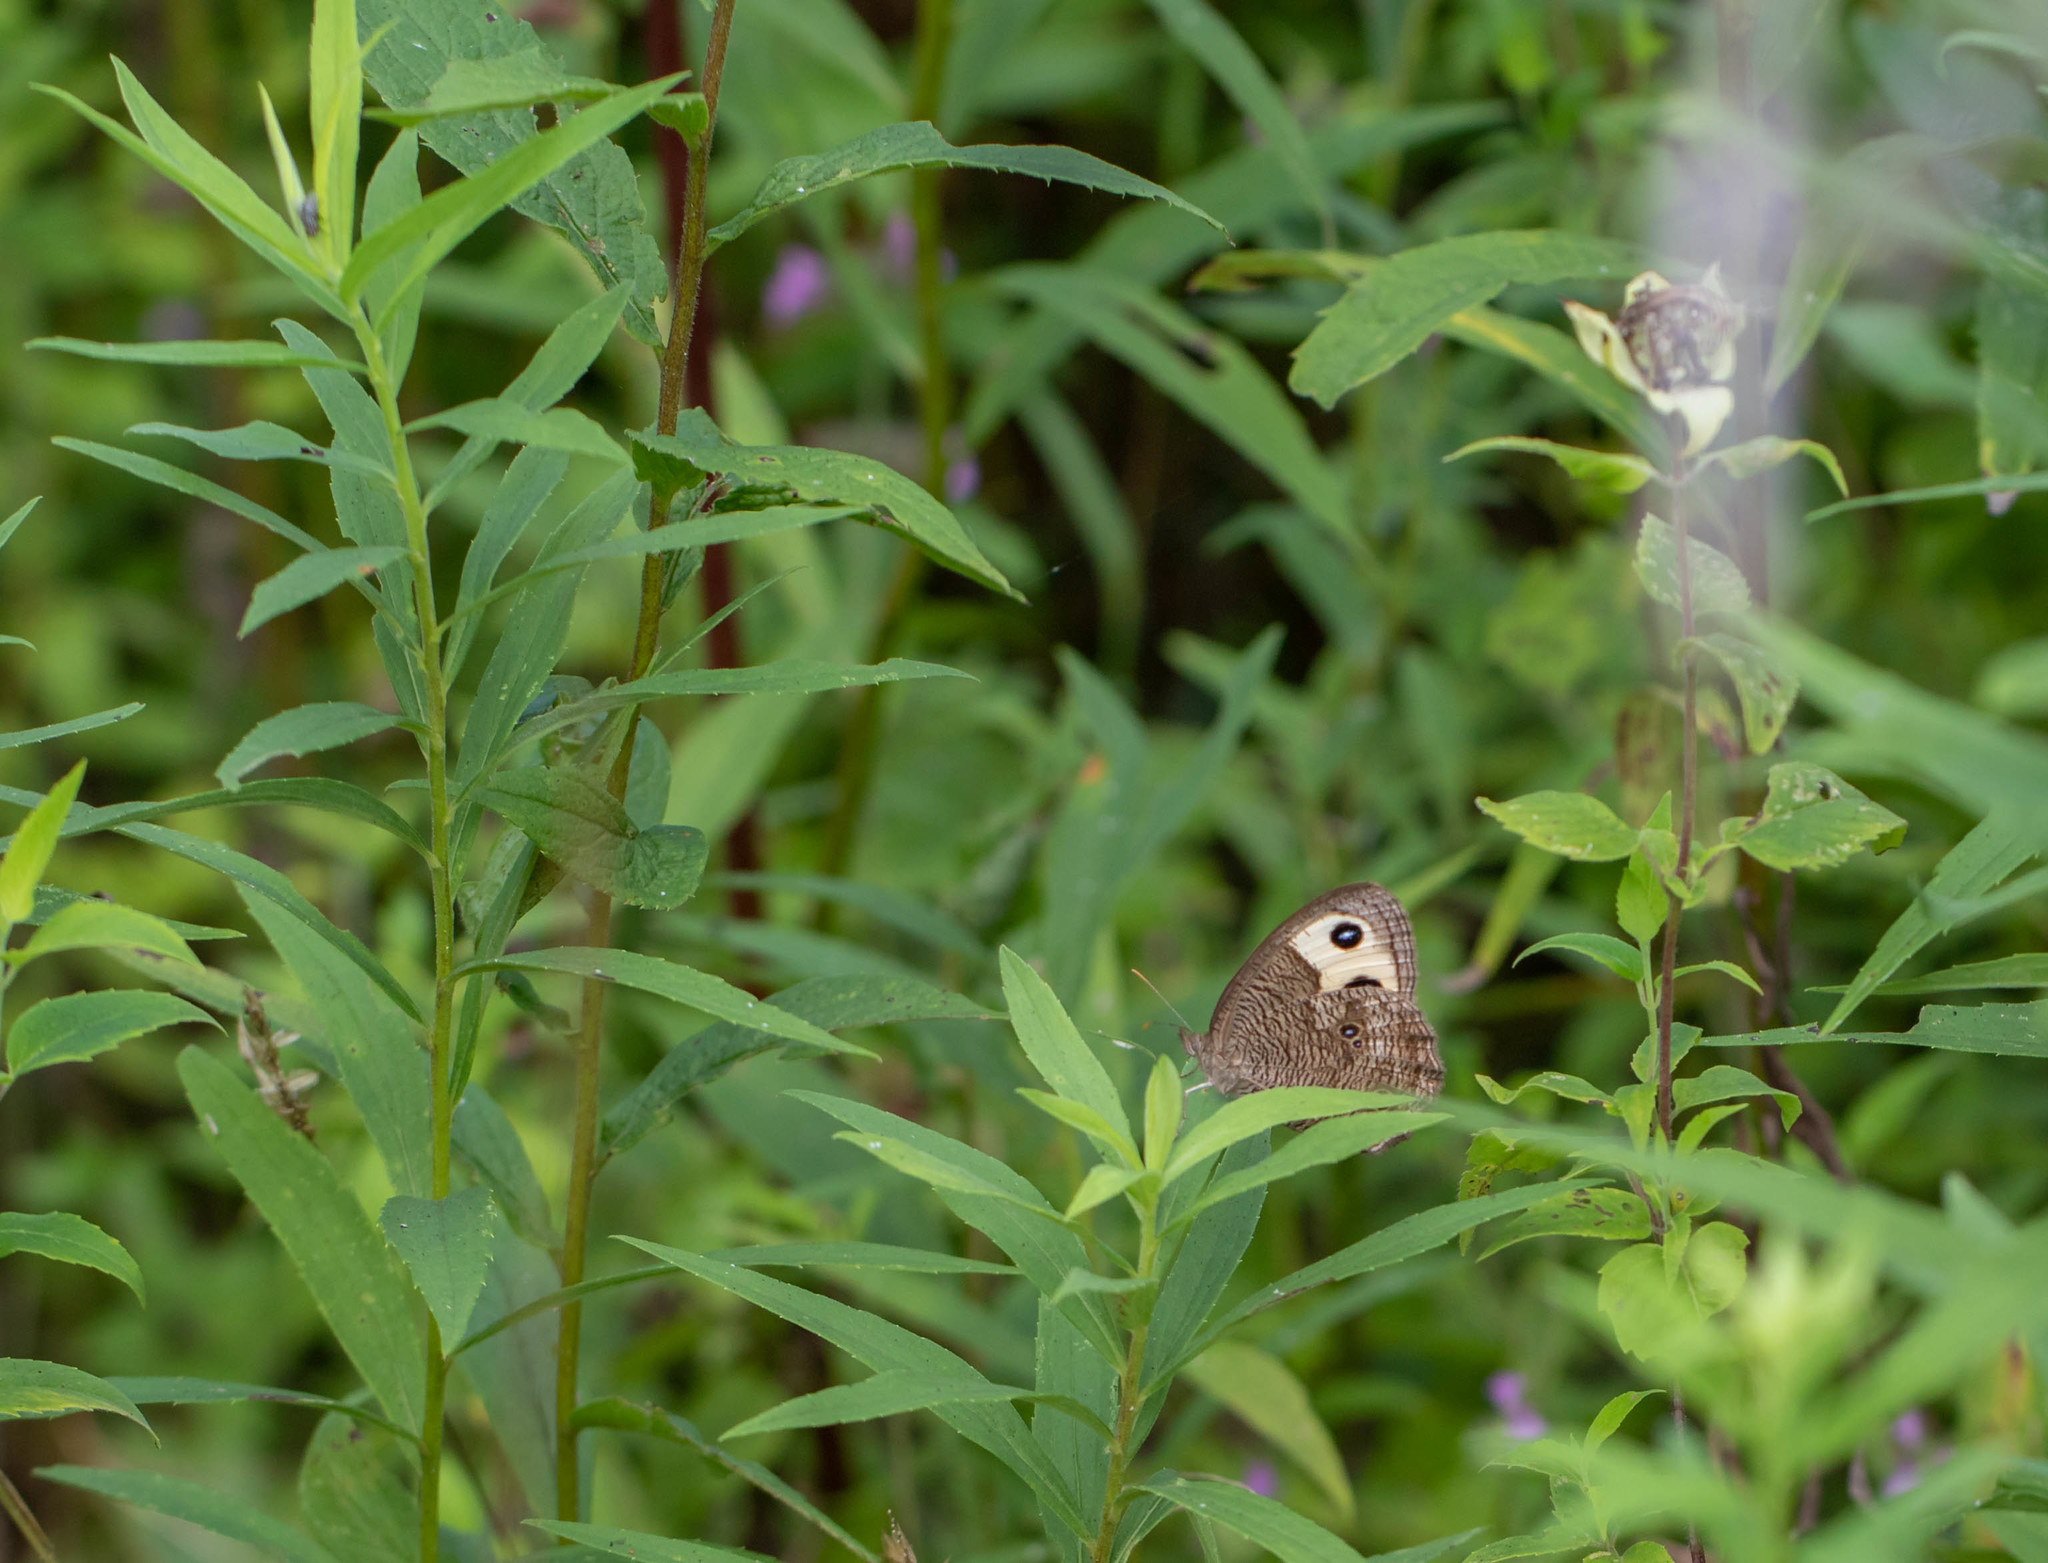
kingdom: Animalia
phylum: Arthropoda
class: Insecta
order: Lepidoptera
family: Nymphalidae
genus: Cercyonis
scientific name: Cercyonis pegala
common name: Common wood-nymph
